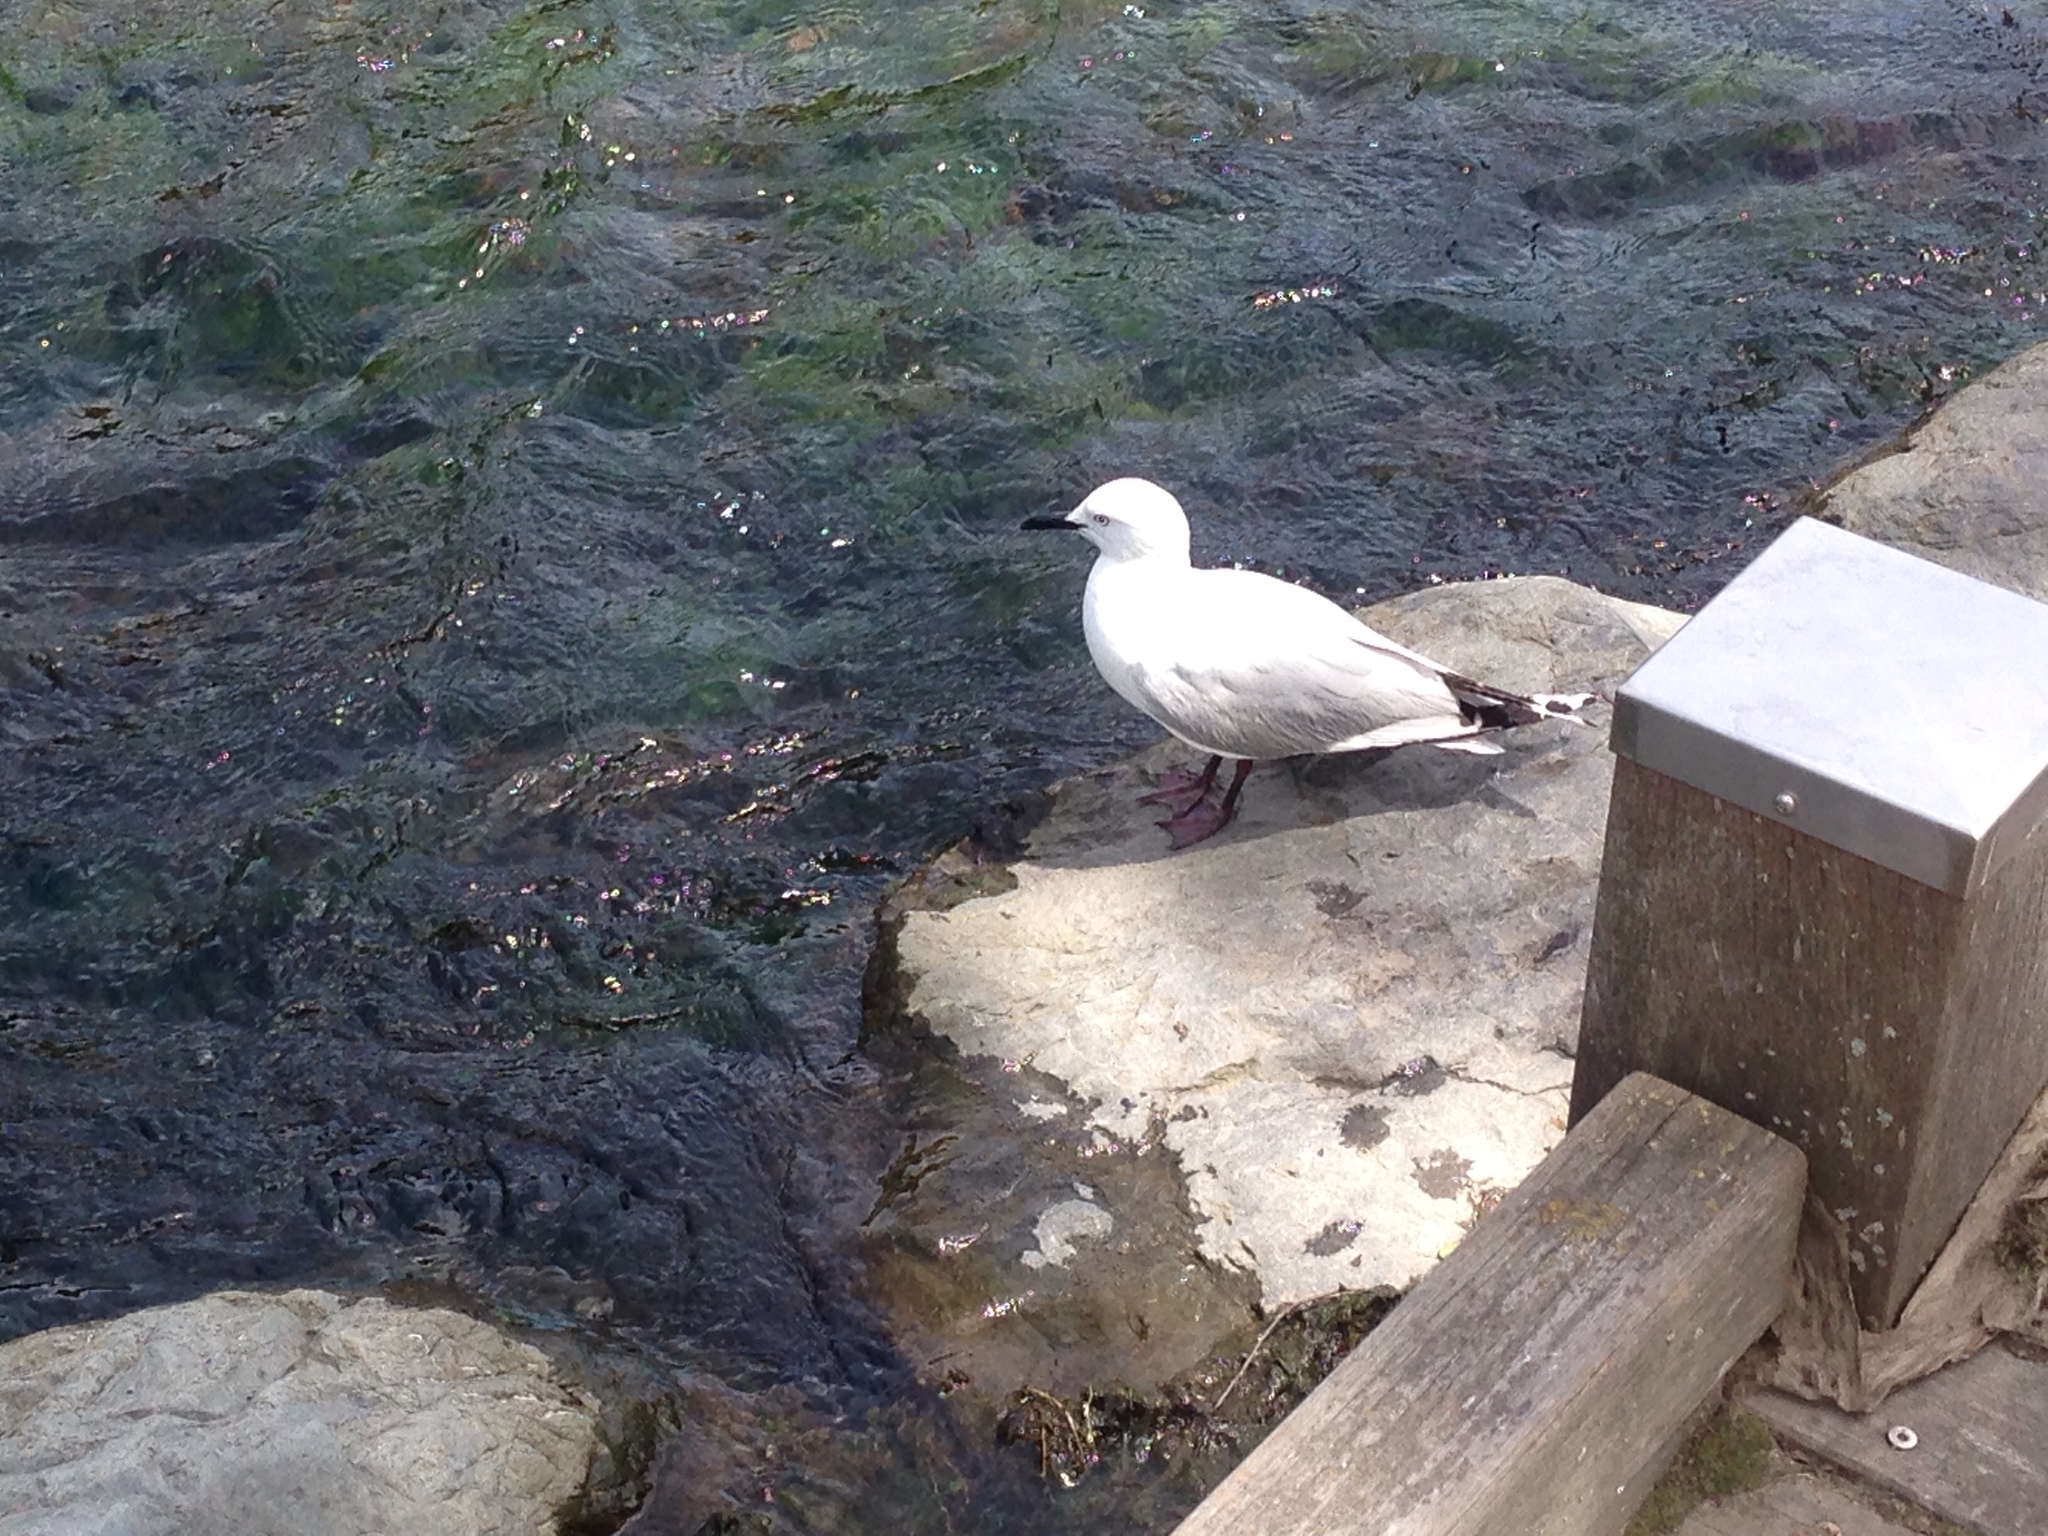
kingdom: Animalia
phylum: Chordata
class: Aves
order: Charadriiformes
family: Laridae
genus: Chroicocephalus
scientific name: Chroicocephalus bulleri
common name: Black-billed gull
